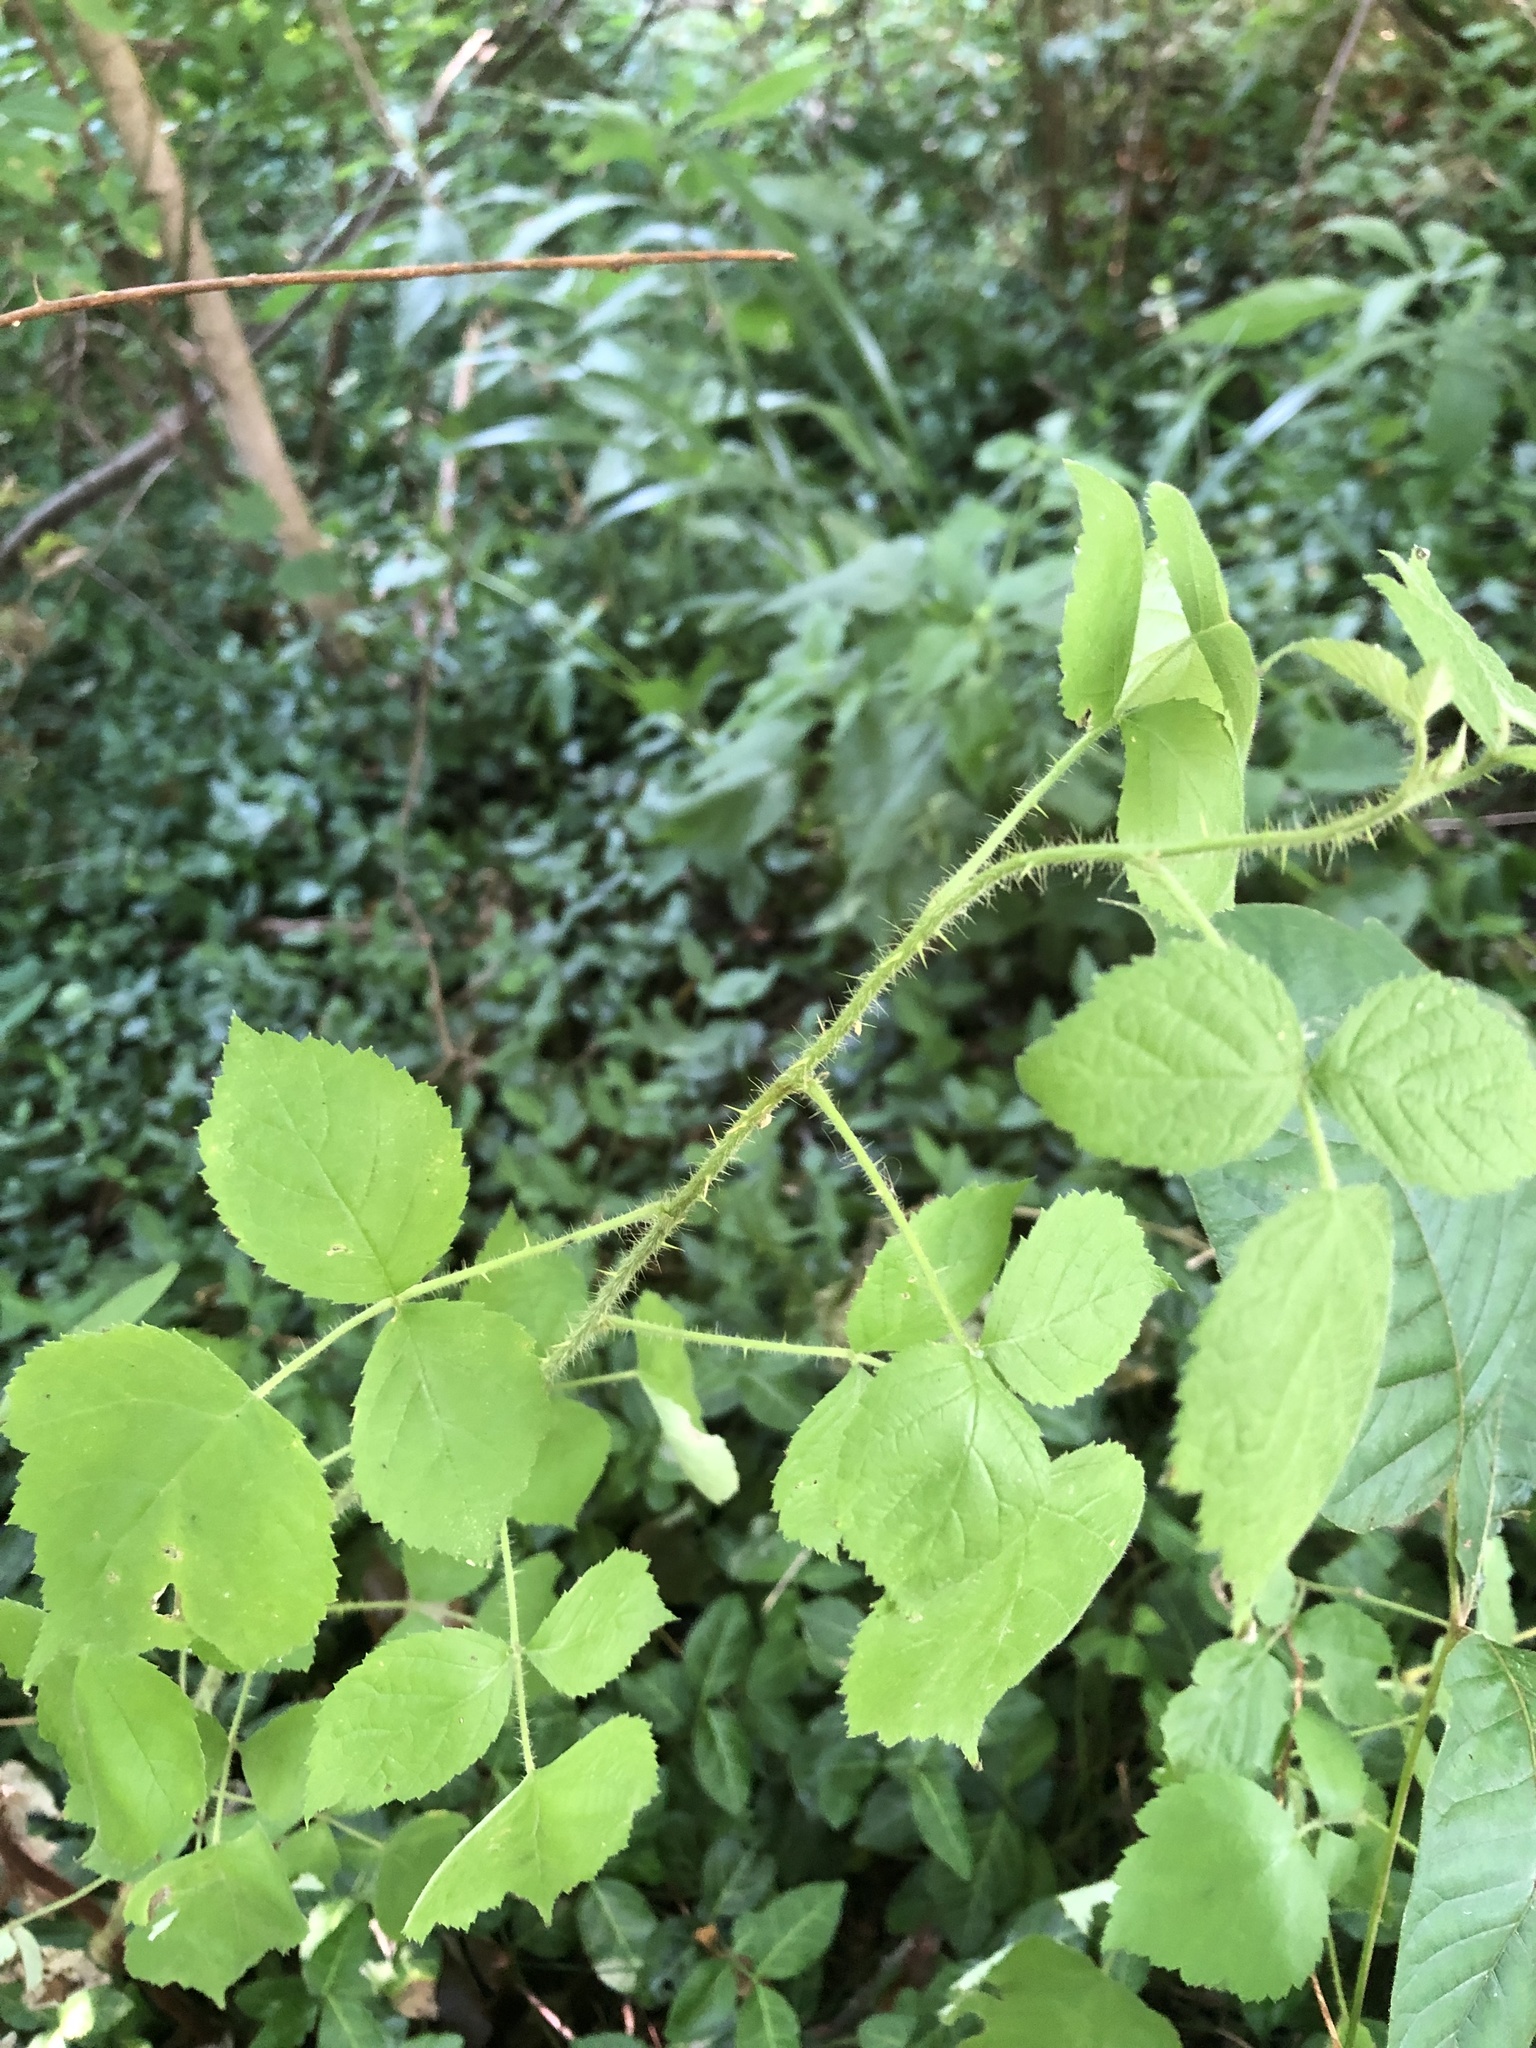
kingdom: Plantae
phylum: Tracheophyta
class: Magnoliopsida
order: Rosales
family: Rosaceae
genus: Rubus
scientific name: Rubus phoenicolasius
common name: Japanese wineberry
